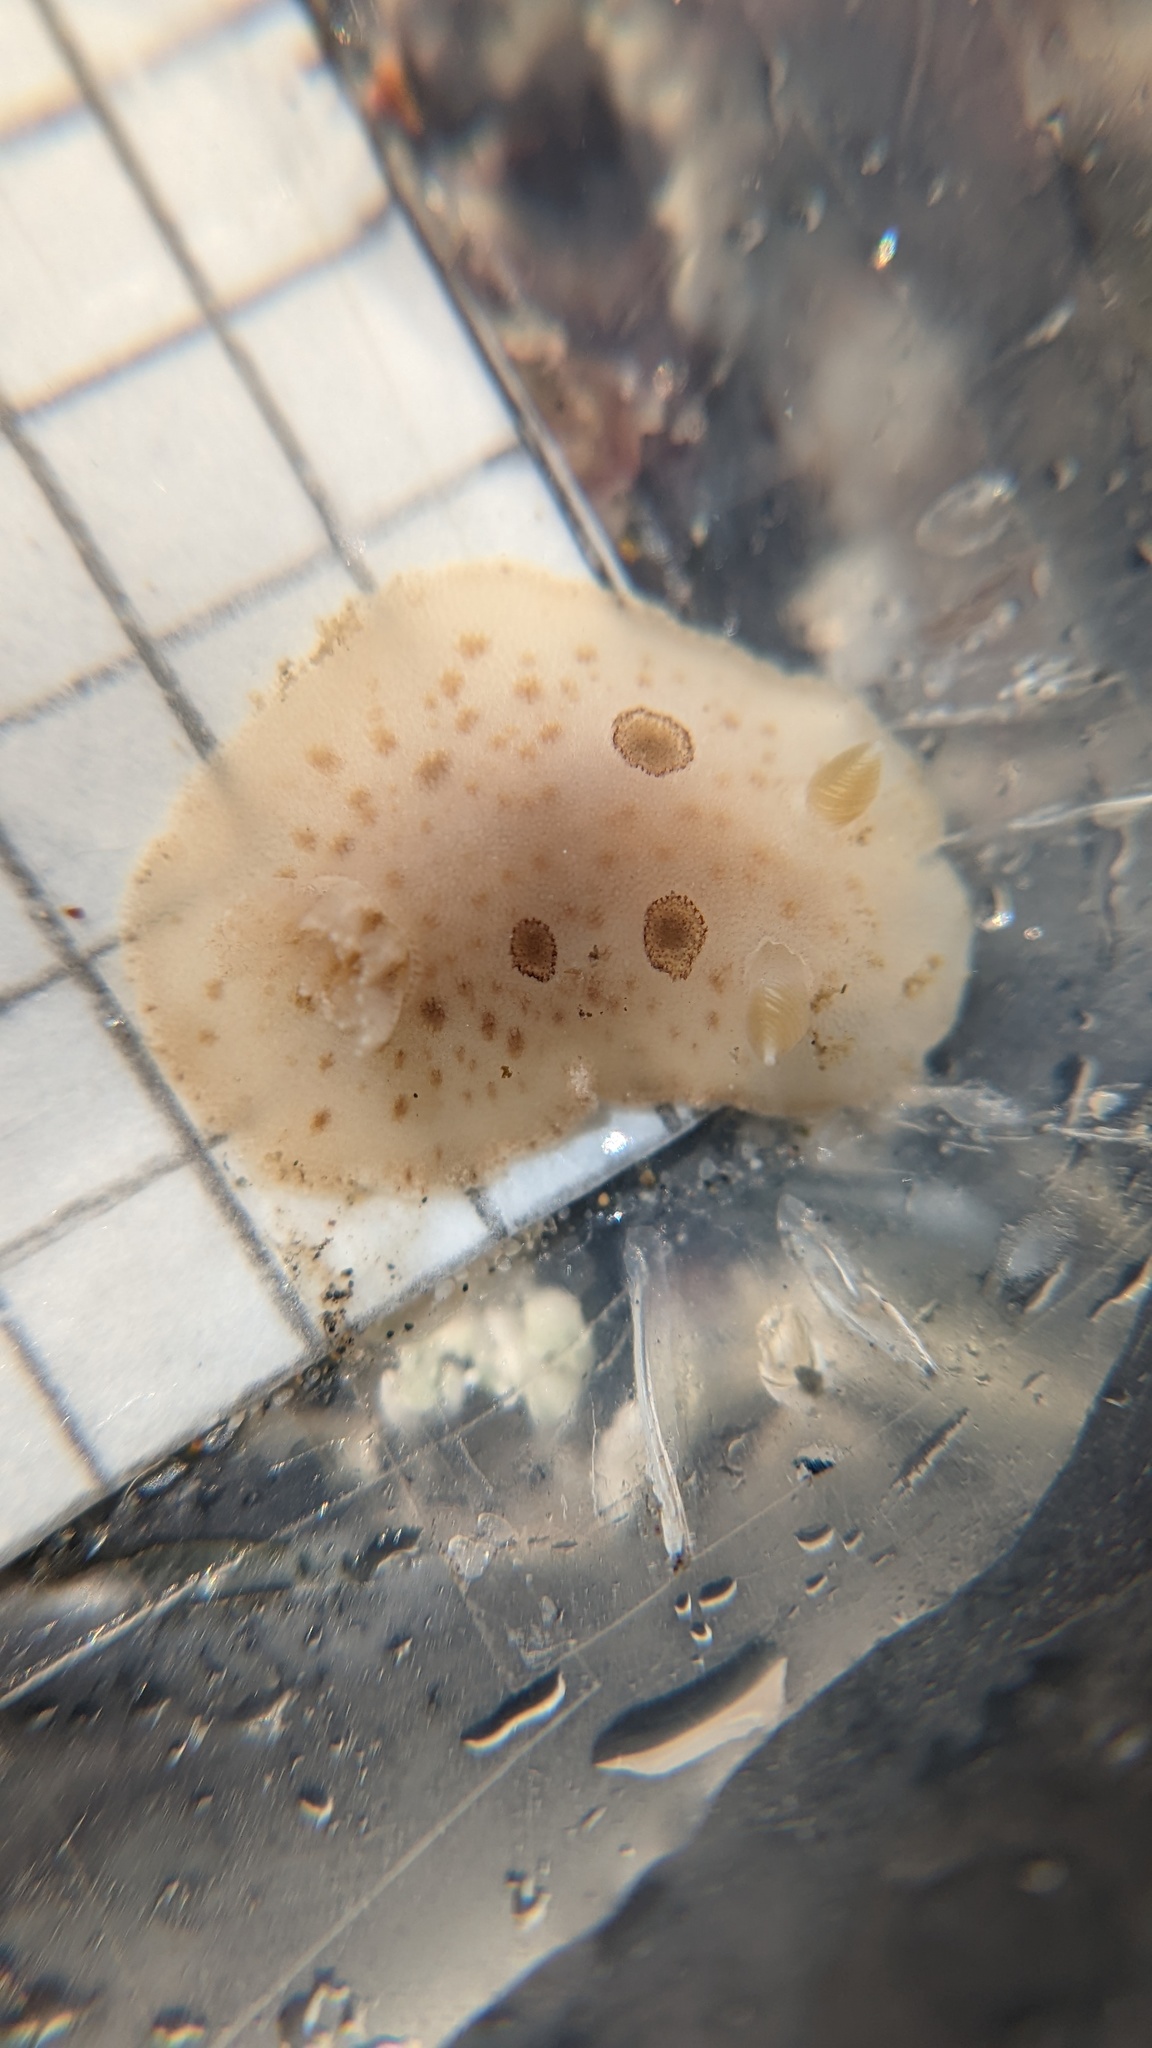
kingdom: Animalia
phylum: Mollusca
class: Gastropoda
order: Nudibranchia
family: Discodorididae
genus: Diaulula
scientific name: Diaulula sandiegensis
